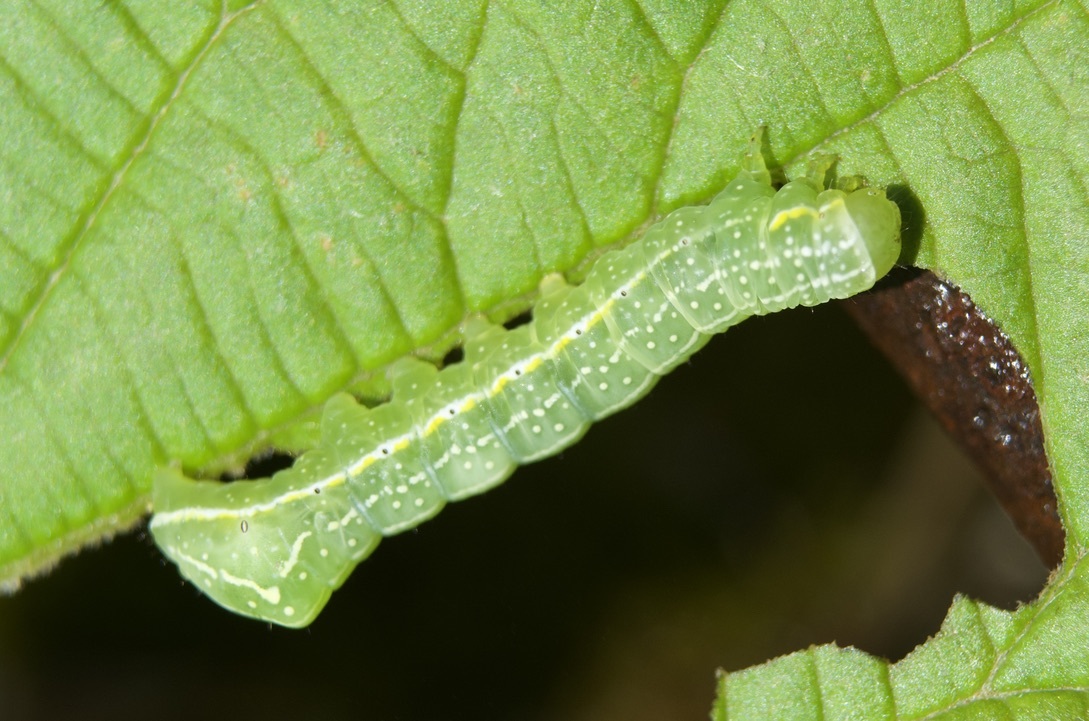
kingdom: Animalia
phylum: Arthropoda
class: Insecta
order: Lepidoptera
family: Noctuidae
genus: Amphipyra
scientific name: Amphipyra pyramidoides
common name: American copper underwing
